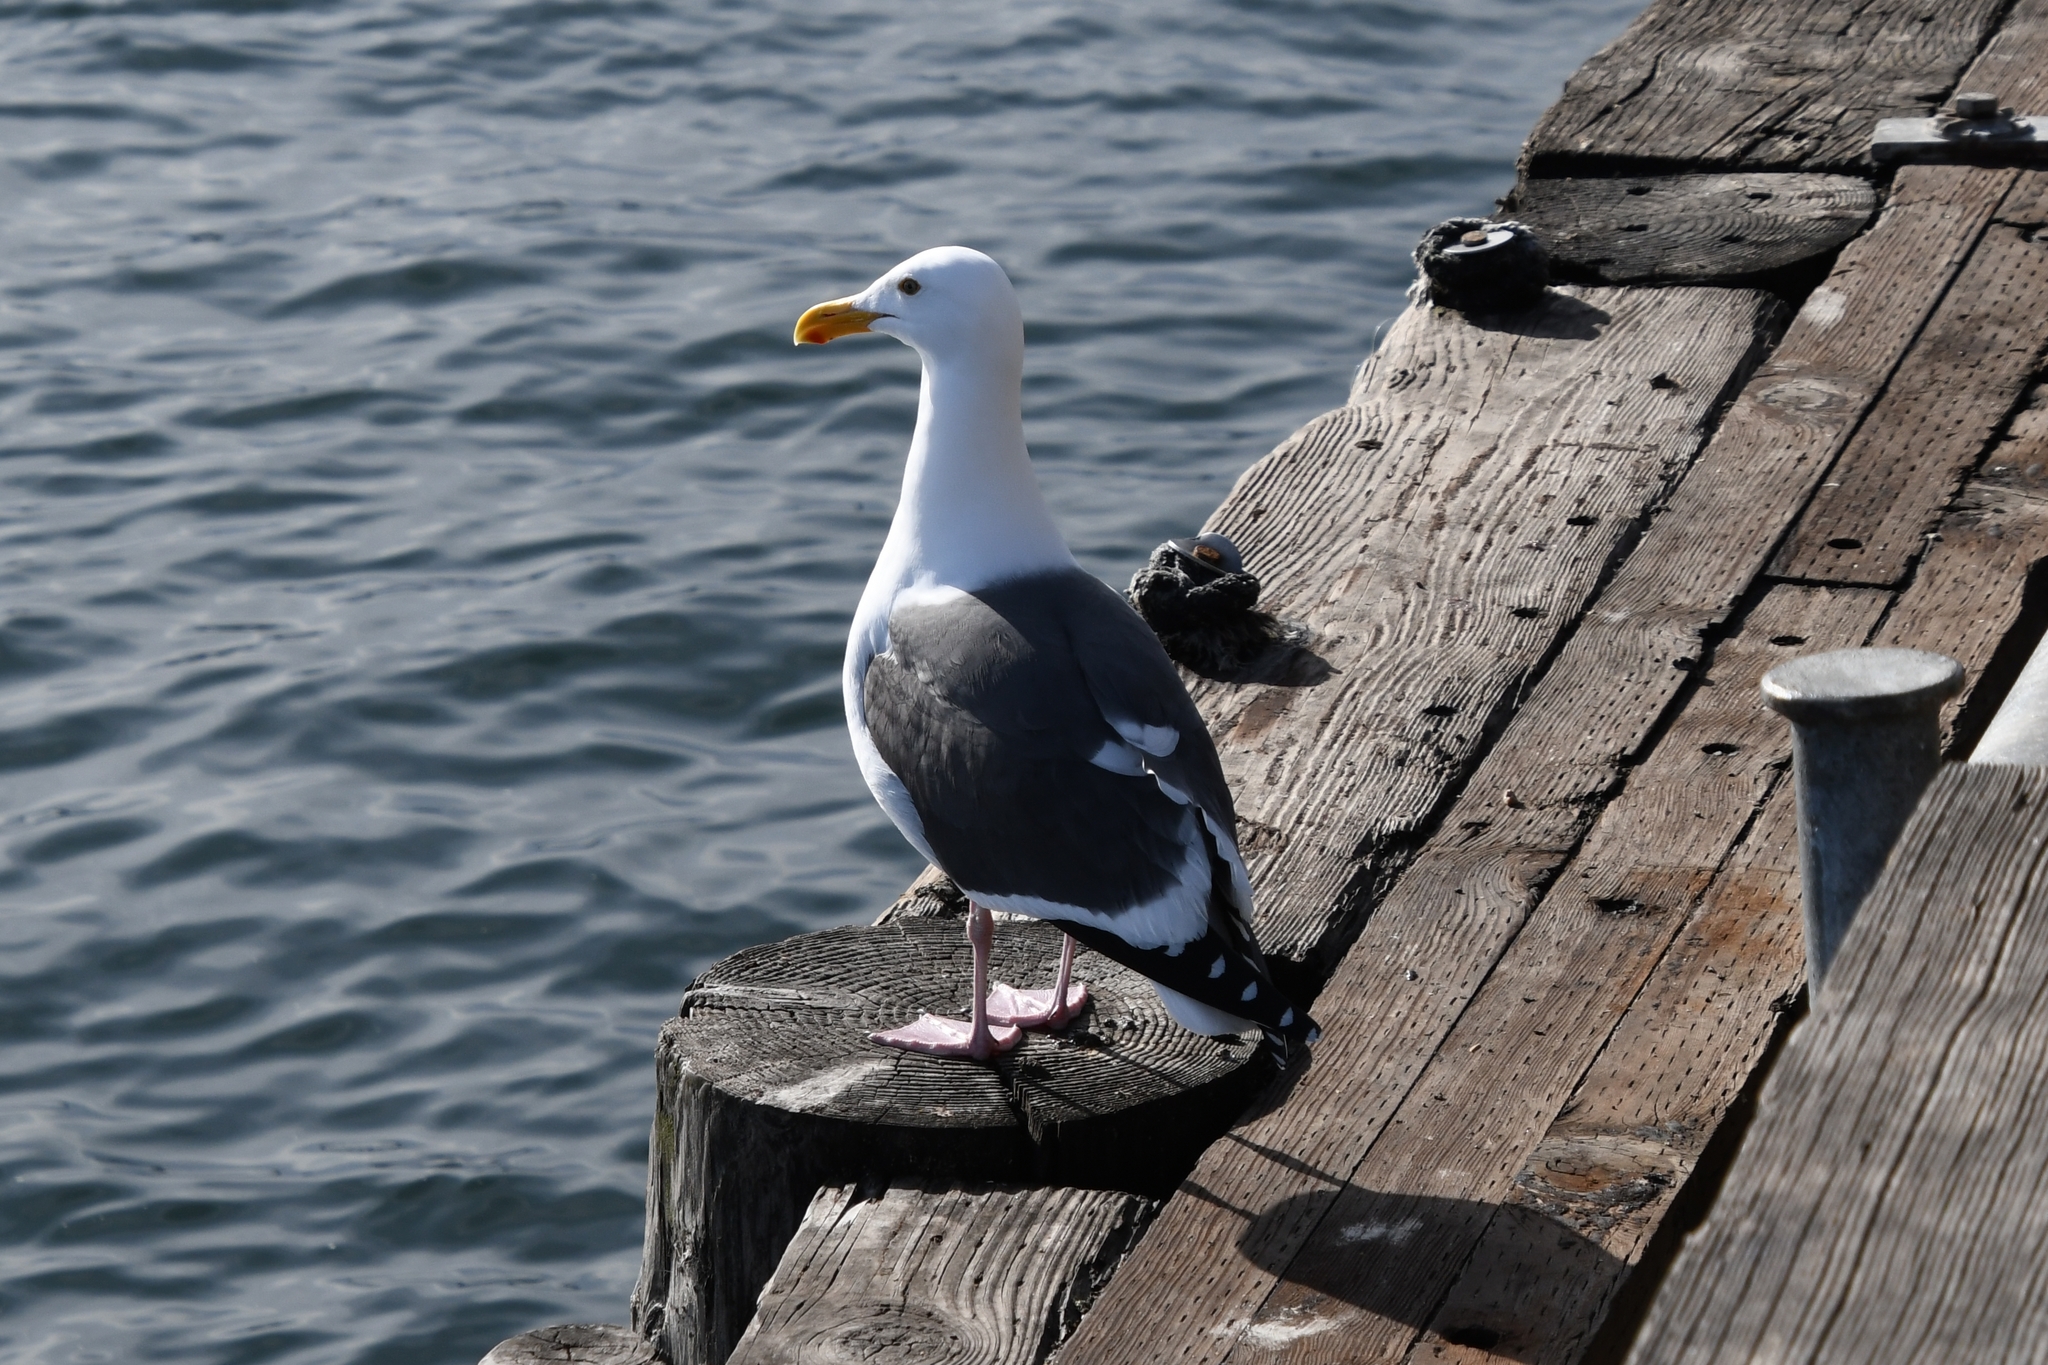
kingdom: Animalia
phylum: Chordata
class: Aves
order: Charadriiformes
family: Laridae
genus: Larus
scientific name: Larus occidentalis
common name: Western gull
